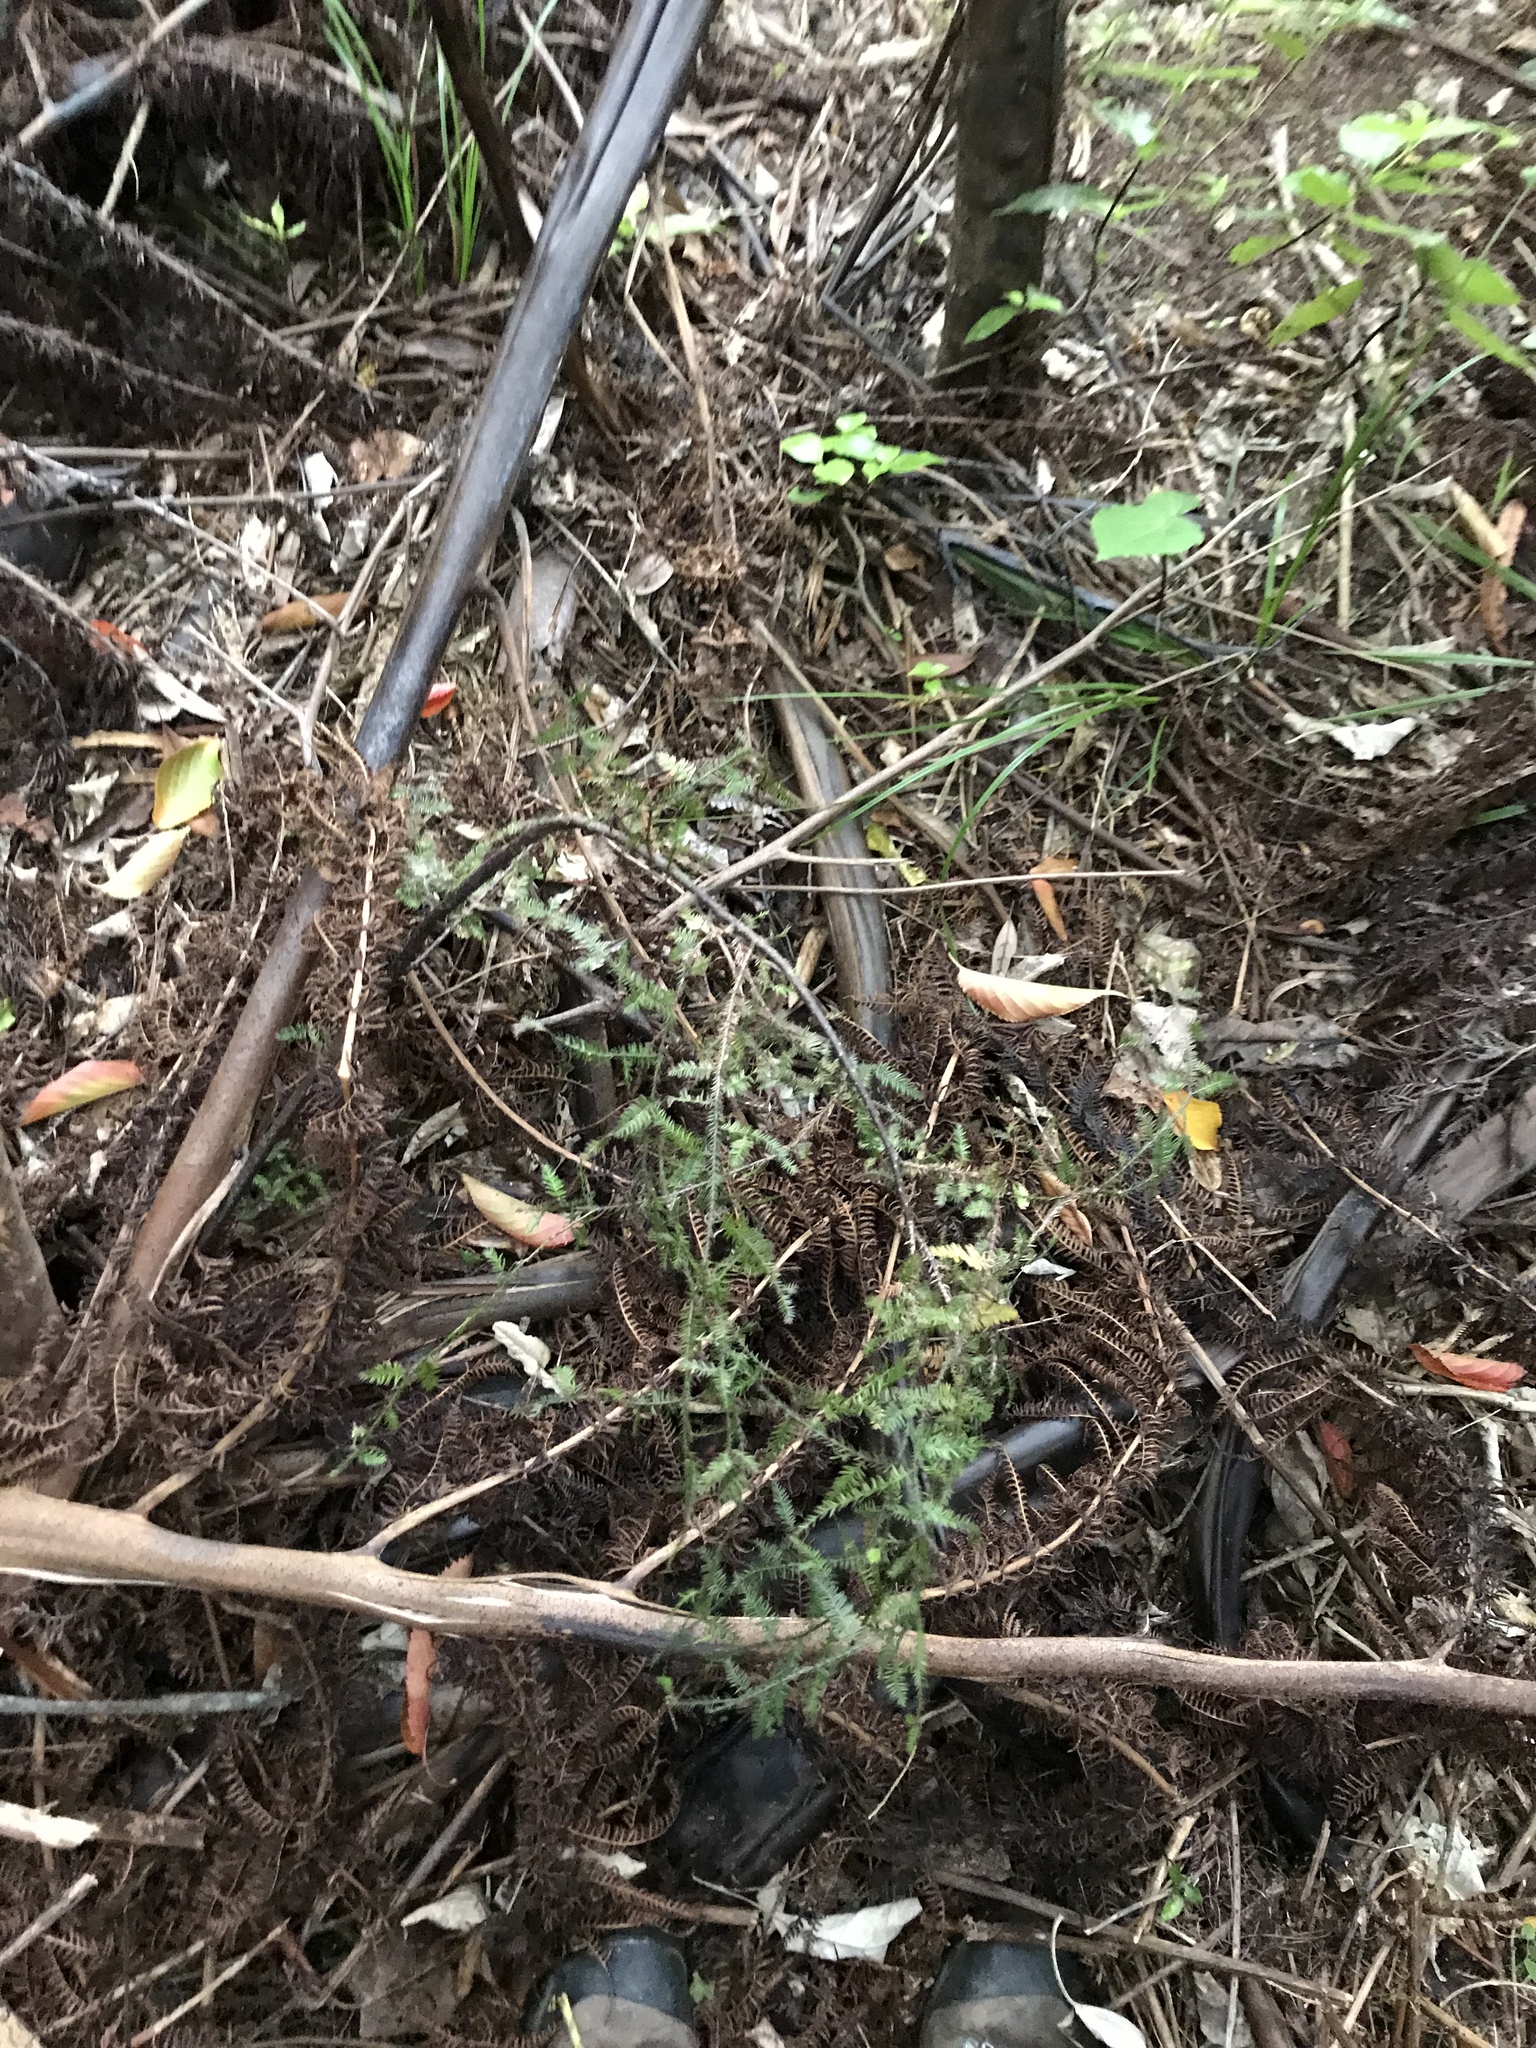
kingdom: Plantae
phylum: Tracheophyta
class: Pinopsida
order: Pinales
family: Podocarpaceae
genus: Dacrycarpus
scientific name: Dacrycarpus dacrydioides
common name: White pine
